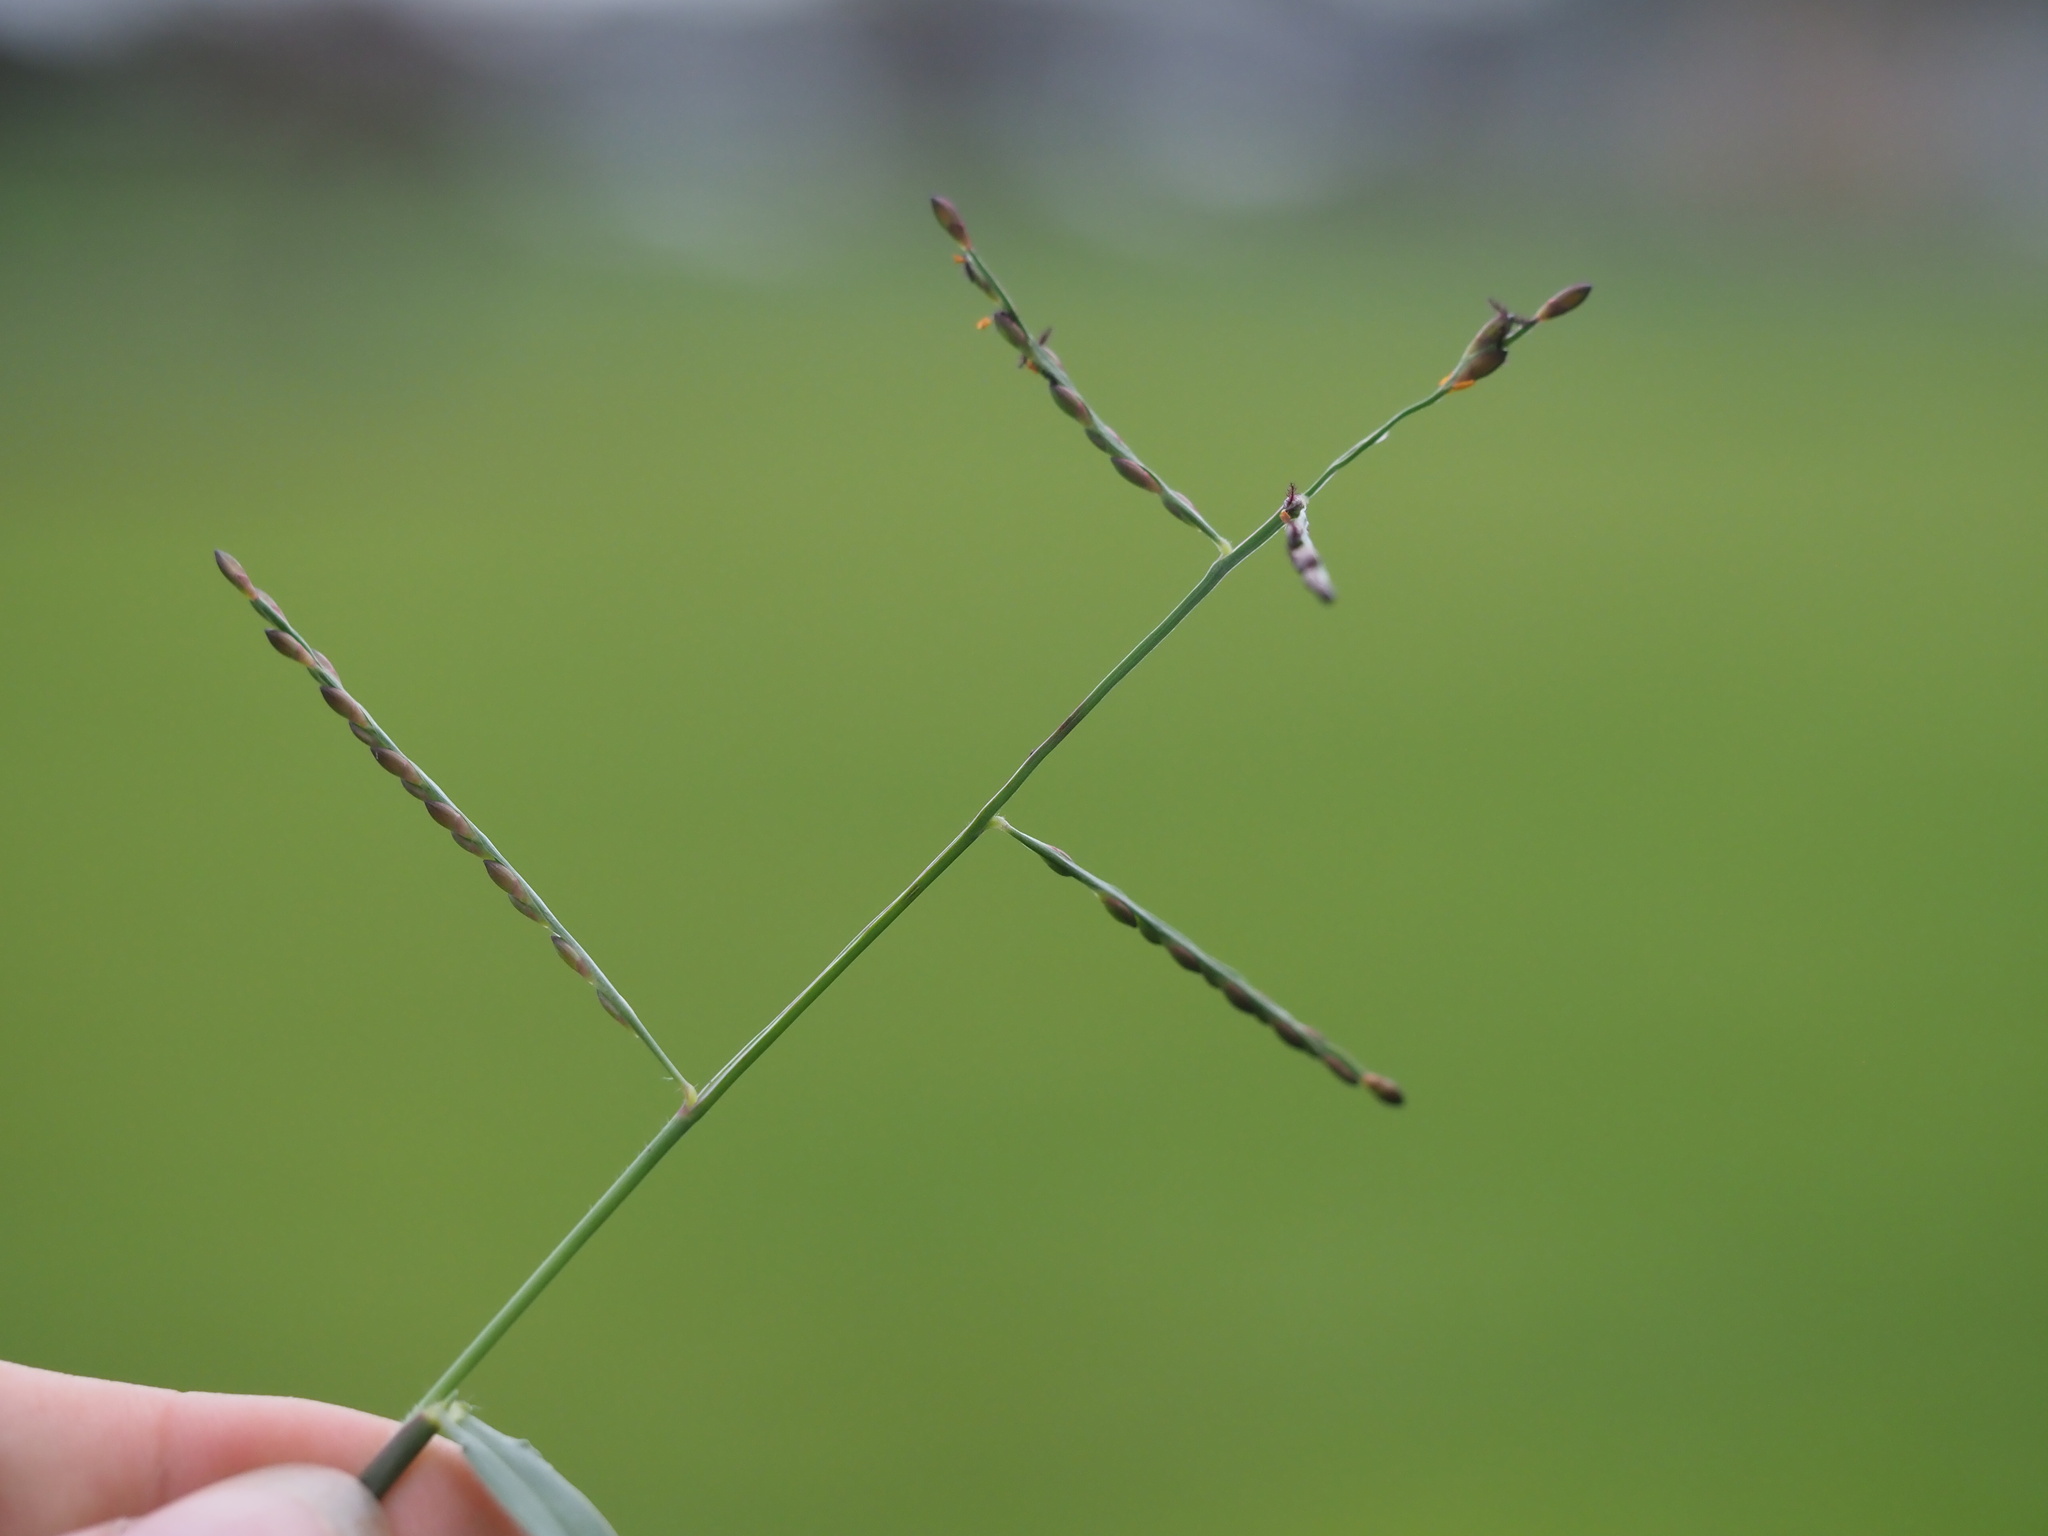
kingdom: Plantae
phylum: Tracheophyta
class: Liliopsida
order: Poales
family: Poaceae
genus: Urochloa
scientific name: Urochloa distachyos
